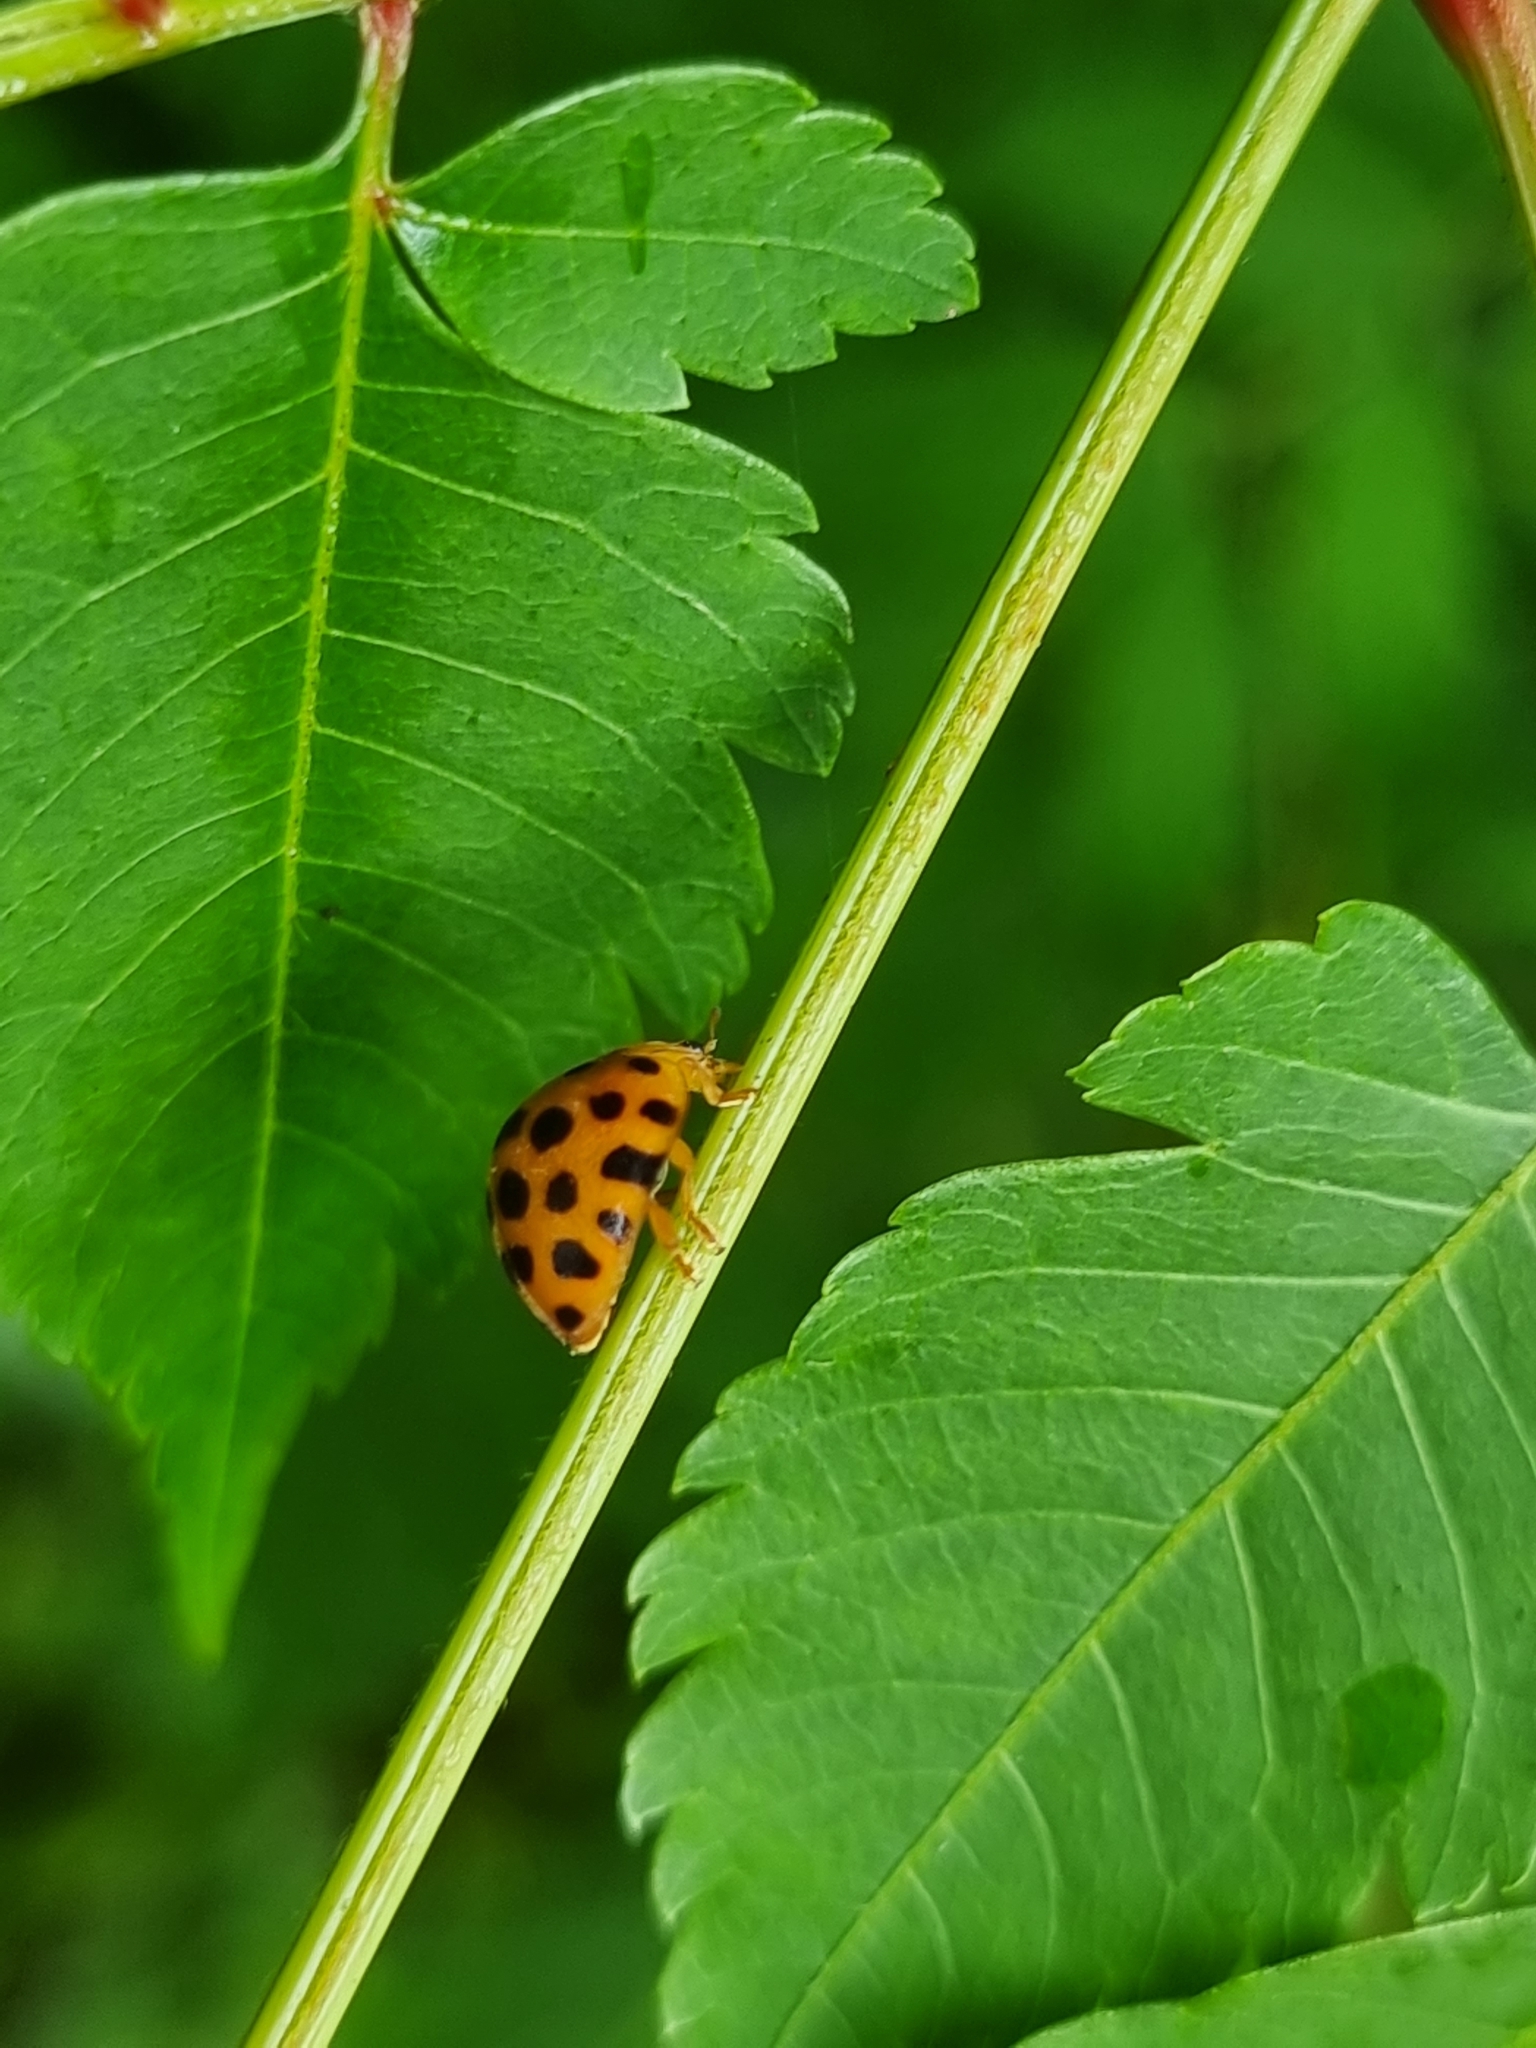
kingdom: Animalia
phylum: Arthropoda
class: Insecta
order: Coleoptera
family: Coccinellidae
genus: Henosepilachna
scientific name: Henosepilachna vigintioctopunctata
